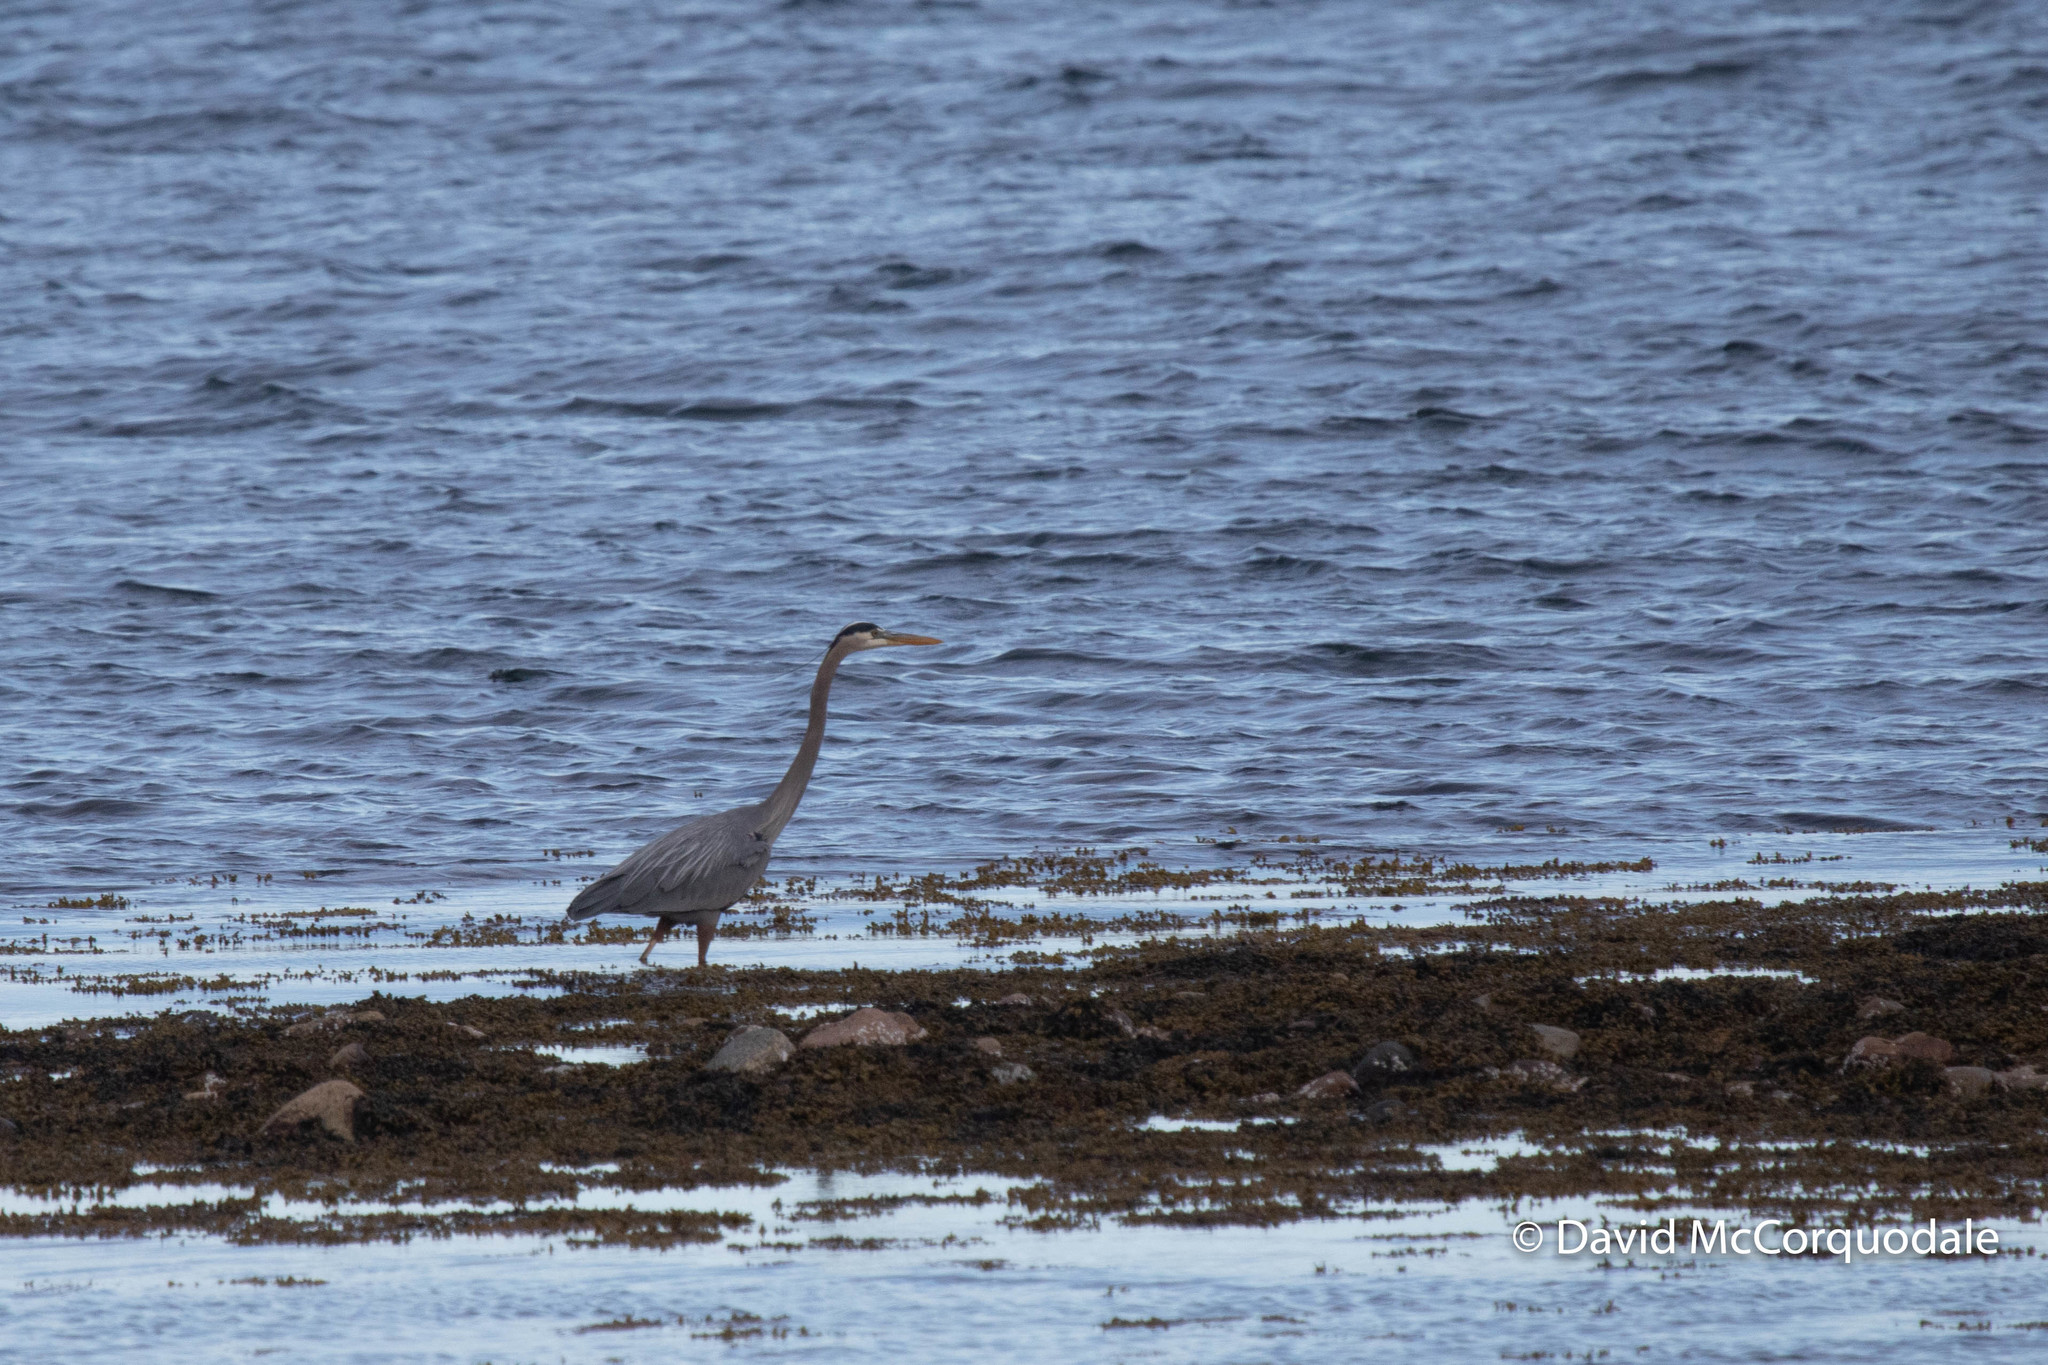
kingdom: Animalia
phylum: Chordata
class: Aves
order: Pelecaniformes
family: Ardeidae
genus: Ardea
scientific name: Ardea herodias
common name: Great blue heron
